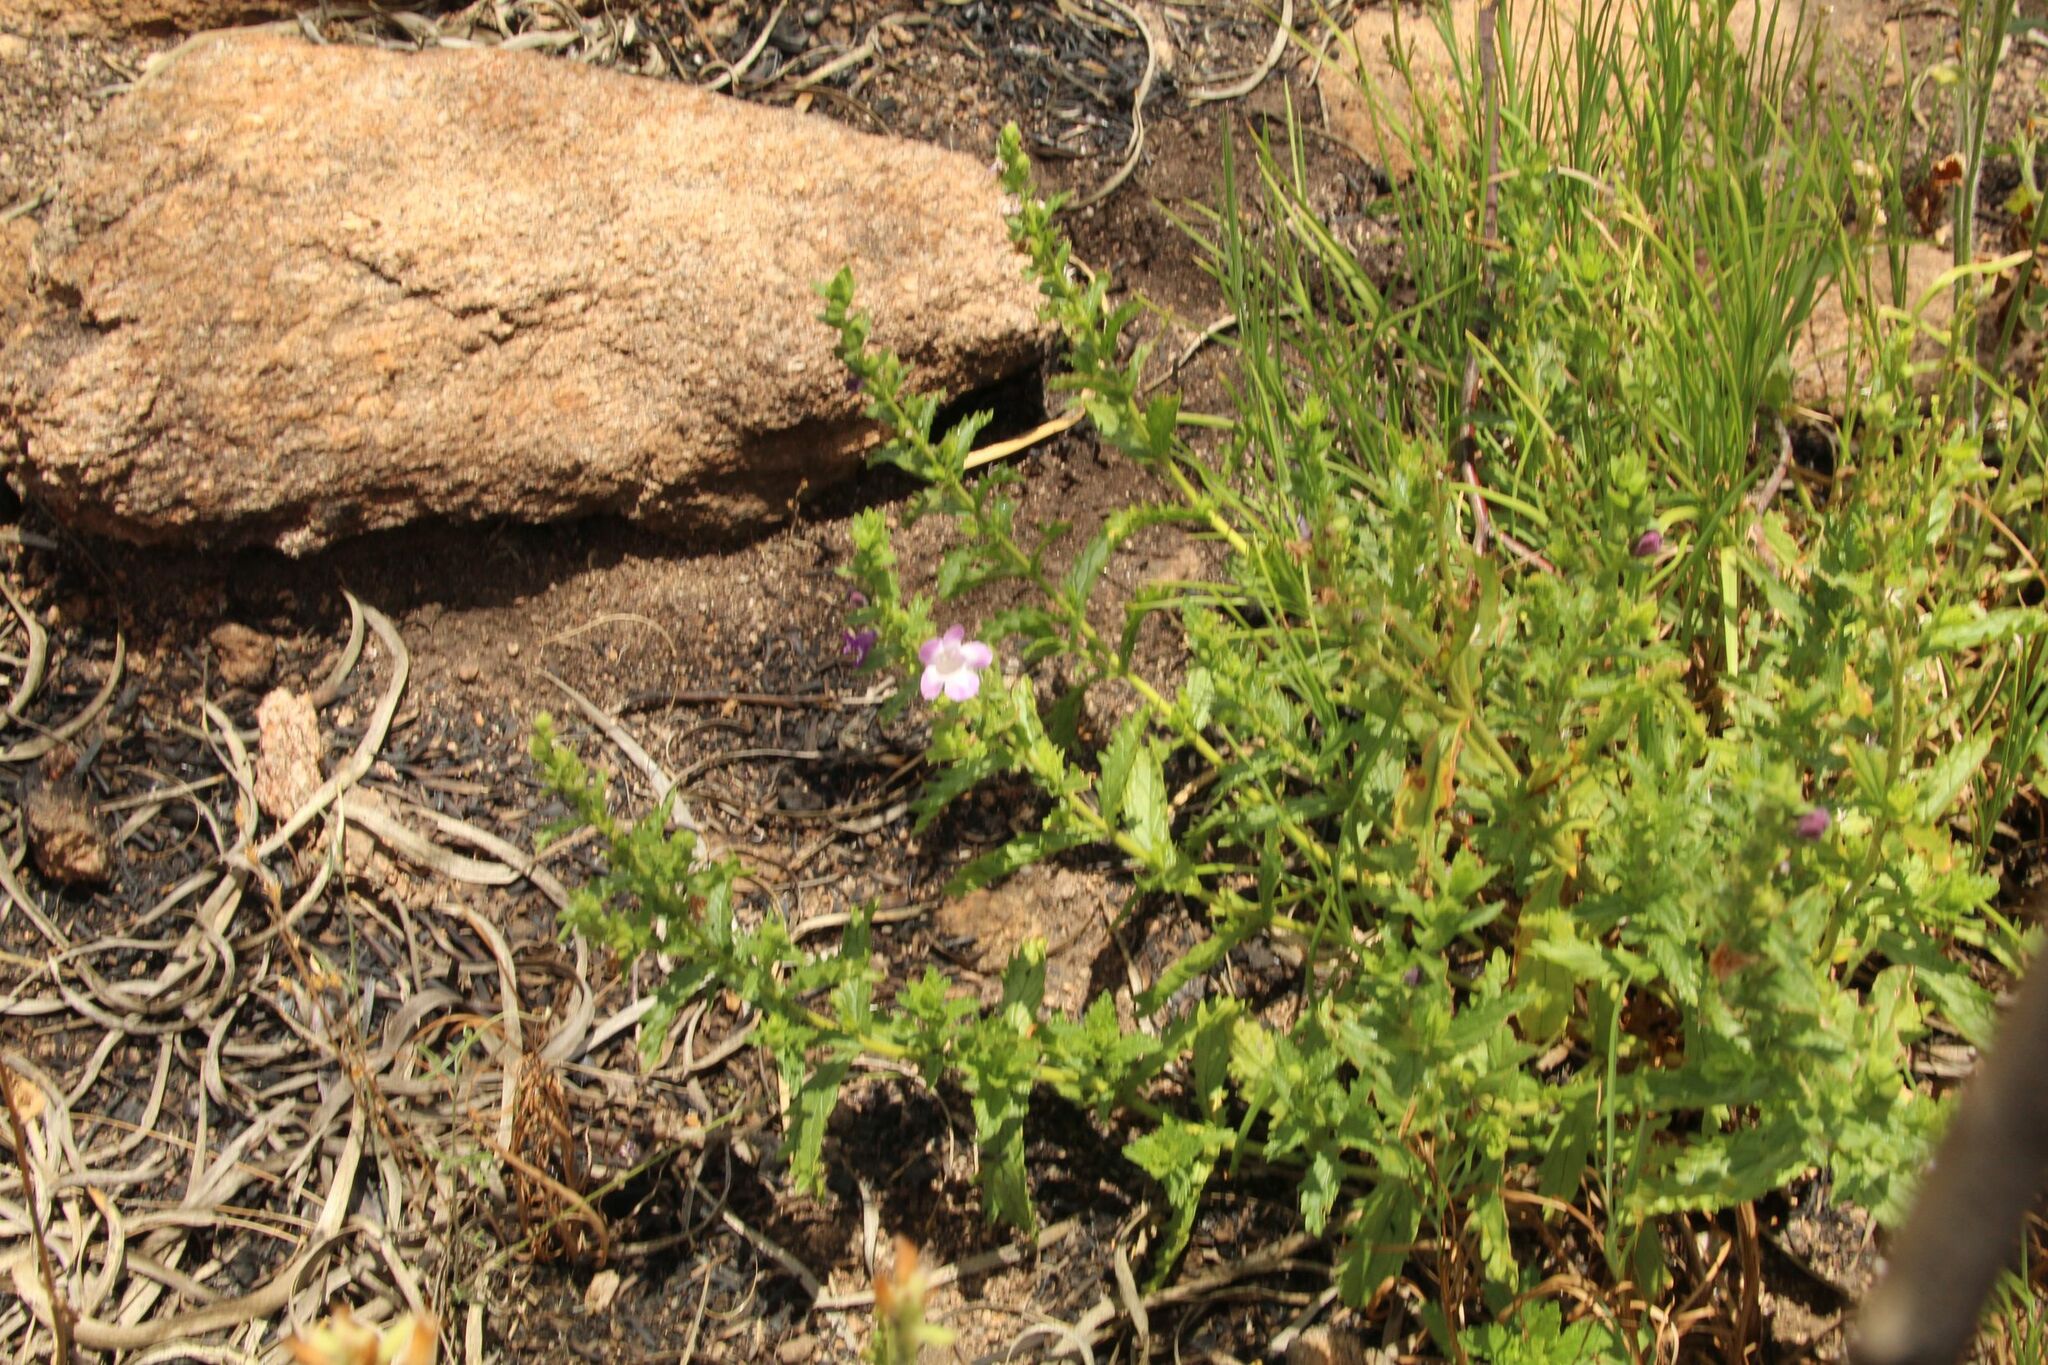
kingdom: Plantae
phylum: Tracheophyta
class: Magnoliopsida
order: Lamiales
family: Lamiaceae
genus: Dasymalla
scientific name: Dasymalla teckiana
